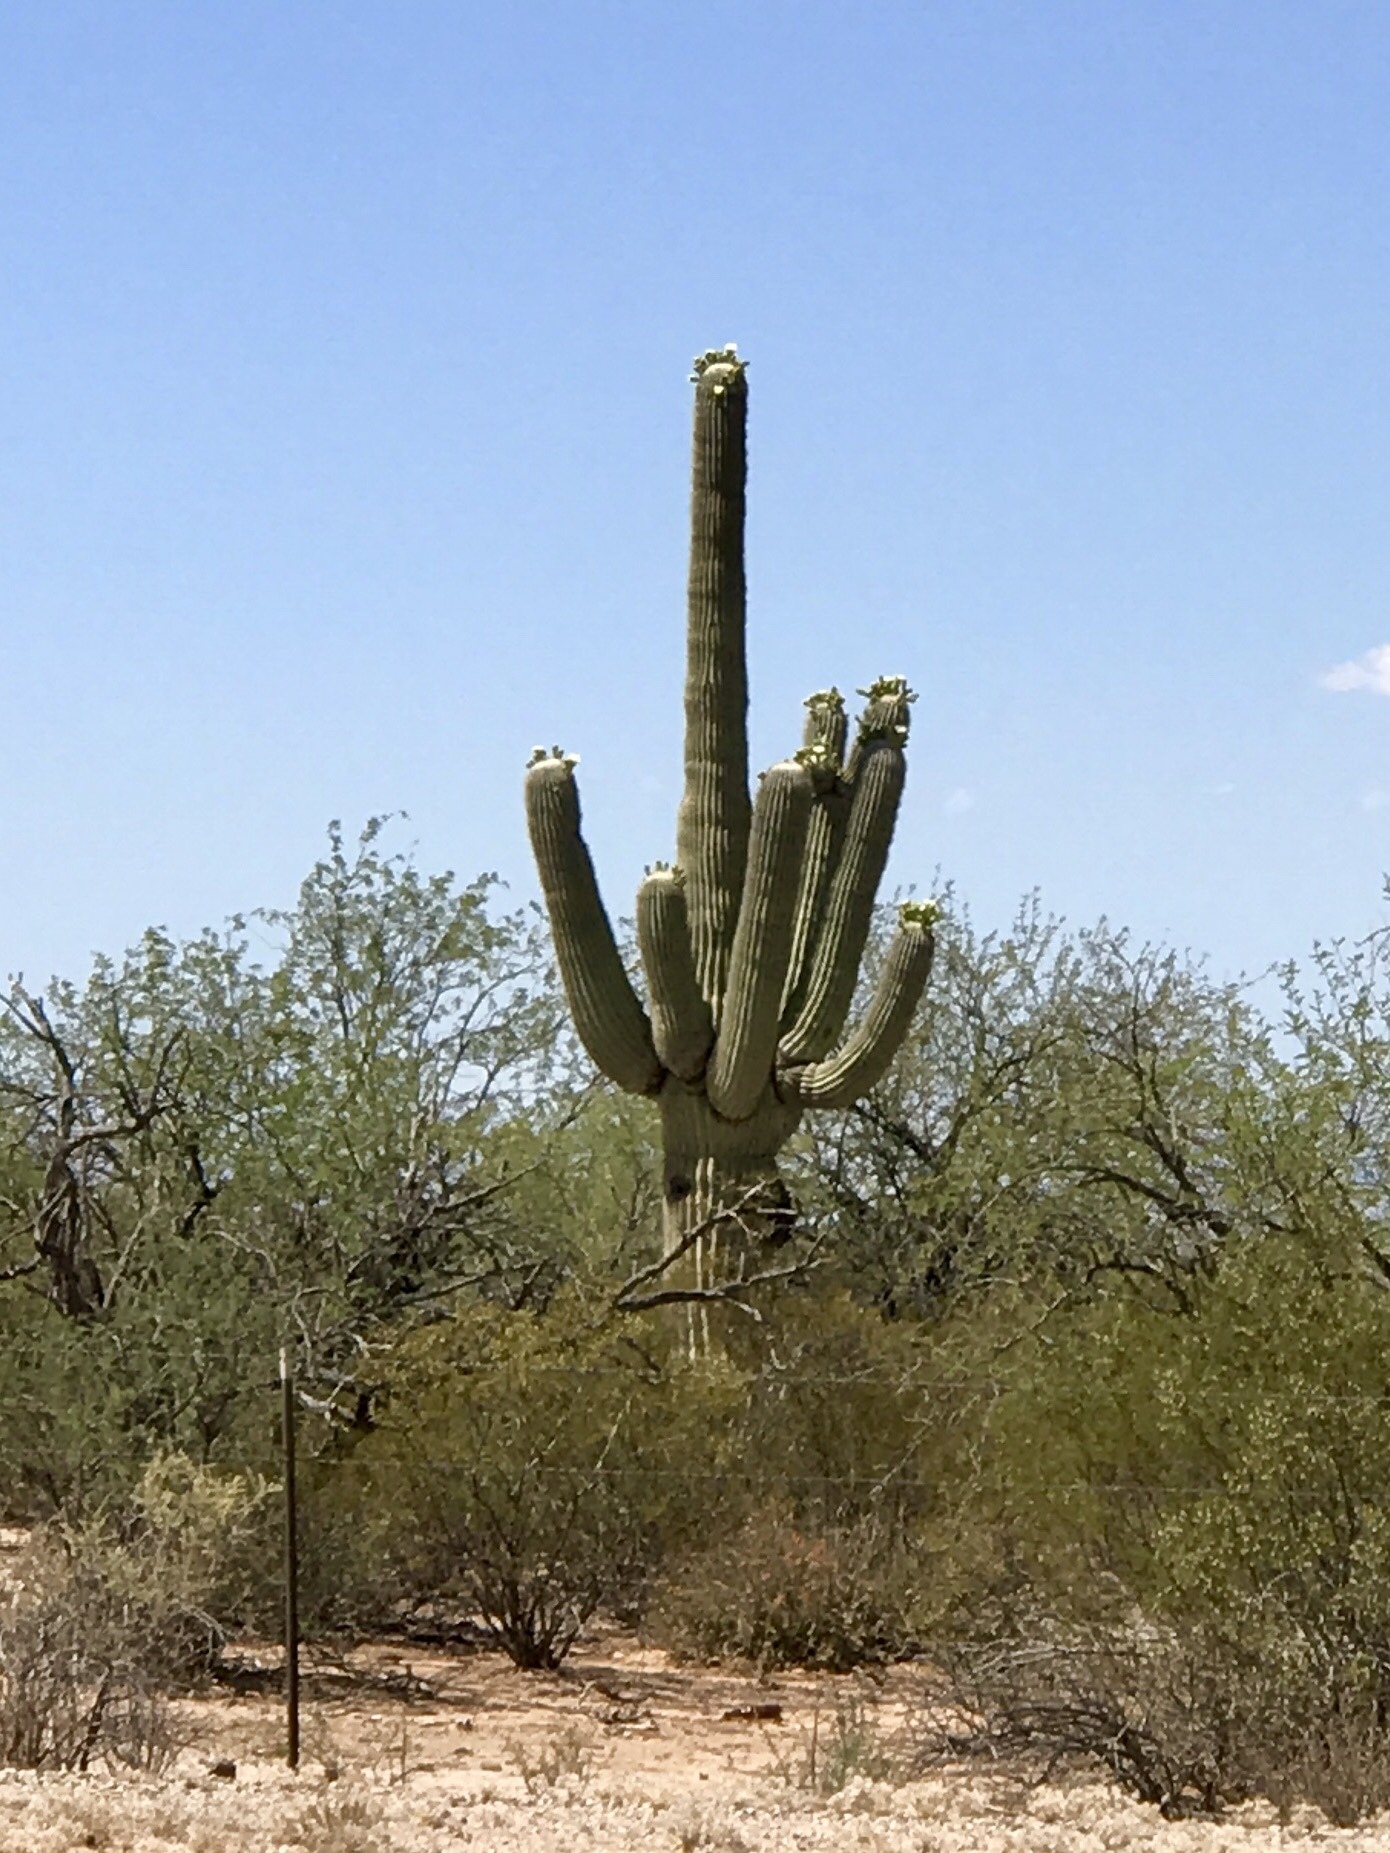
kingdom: Plantae
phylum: Tracheophyta
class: Magnoliopsida
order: Caryophyllales
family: Cactaceae
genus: Carnegiea
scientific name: Carnegiea gigantea
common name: Saguaro
